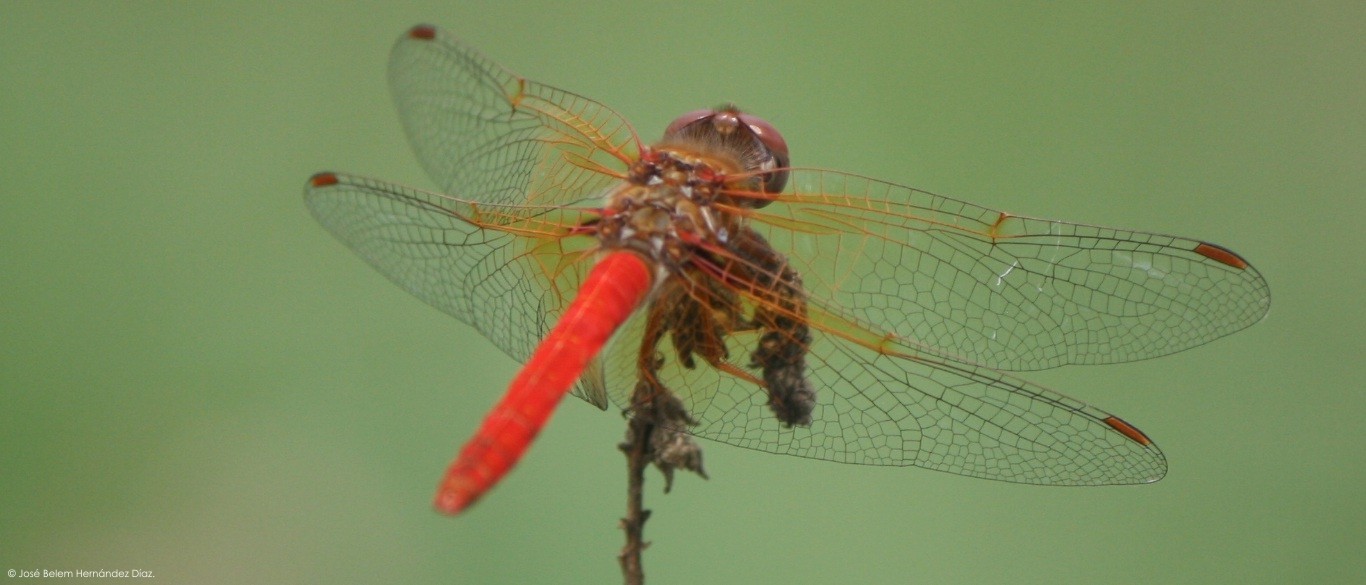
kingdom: Animalia
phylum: Arthropoda
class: Insecta
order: Odonata
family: Libellulidae
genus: Sympetrum
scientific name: Sympetrum illotum
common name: Cardinal meadowhawk
